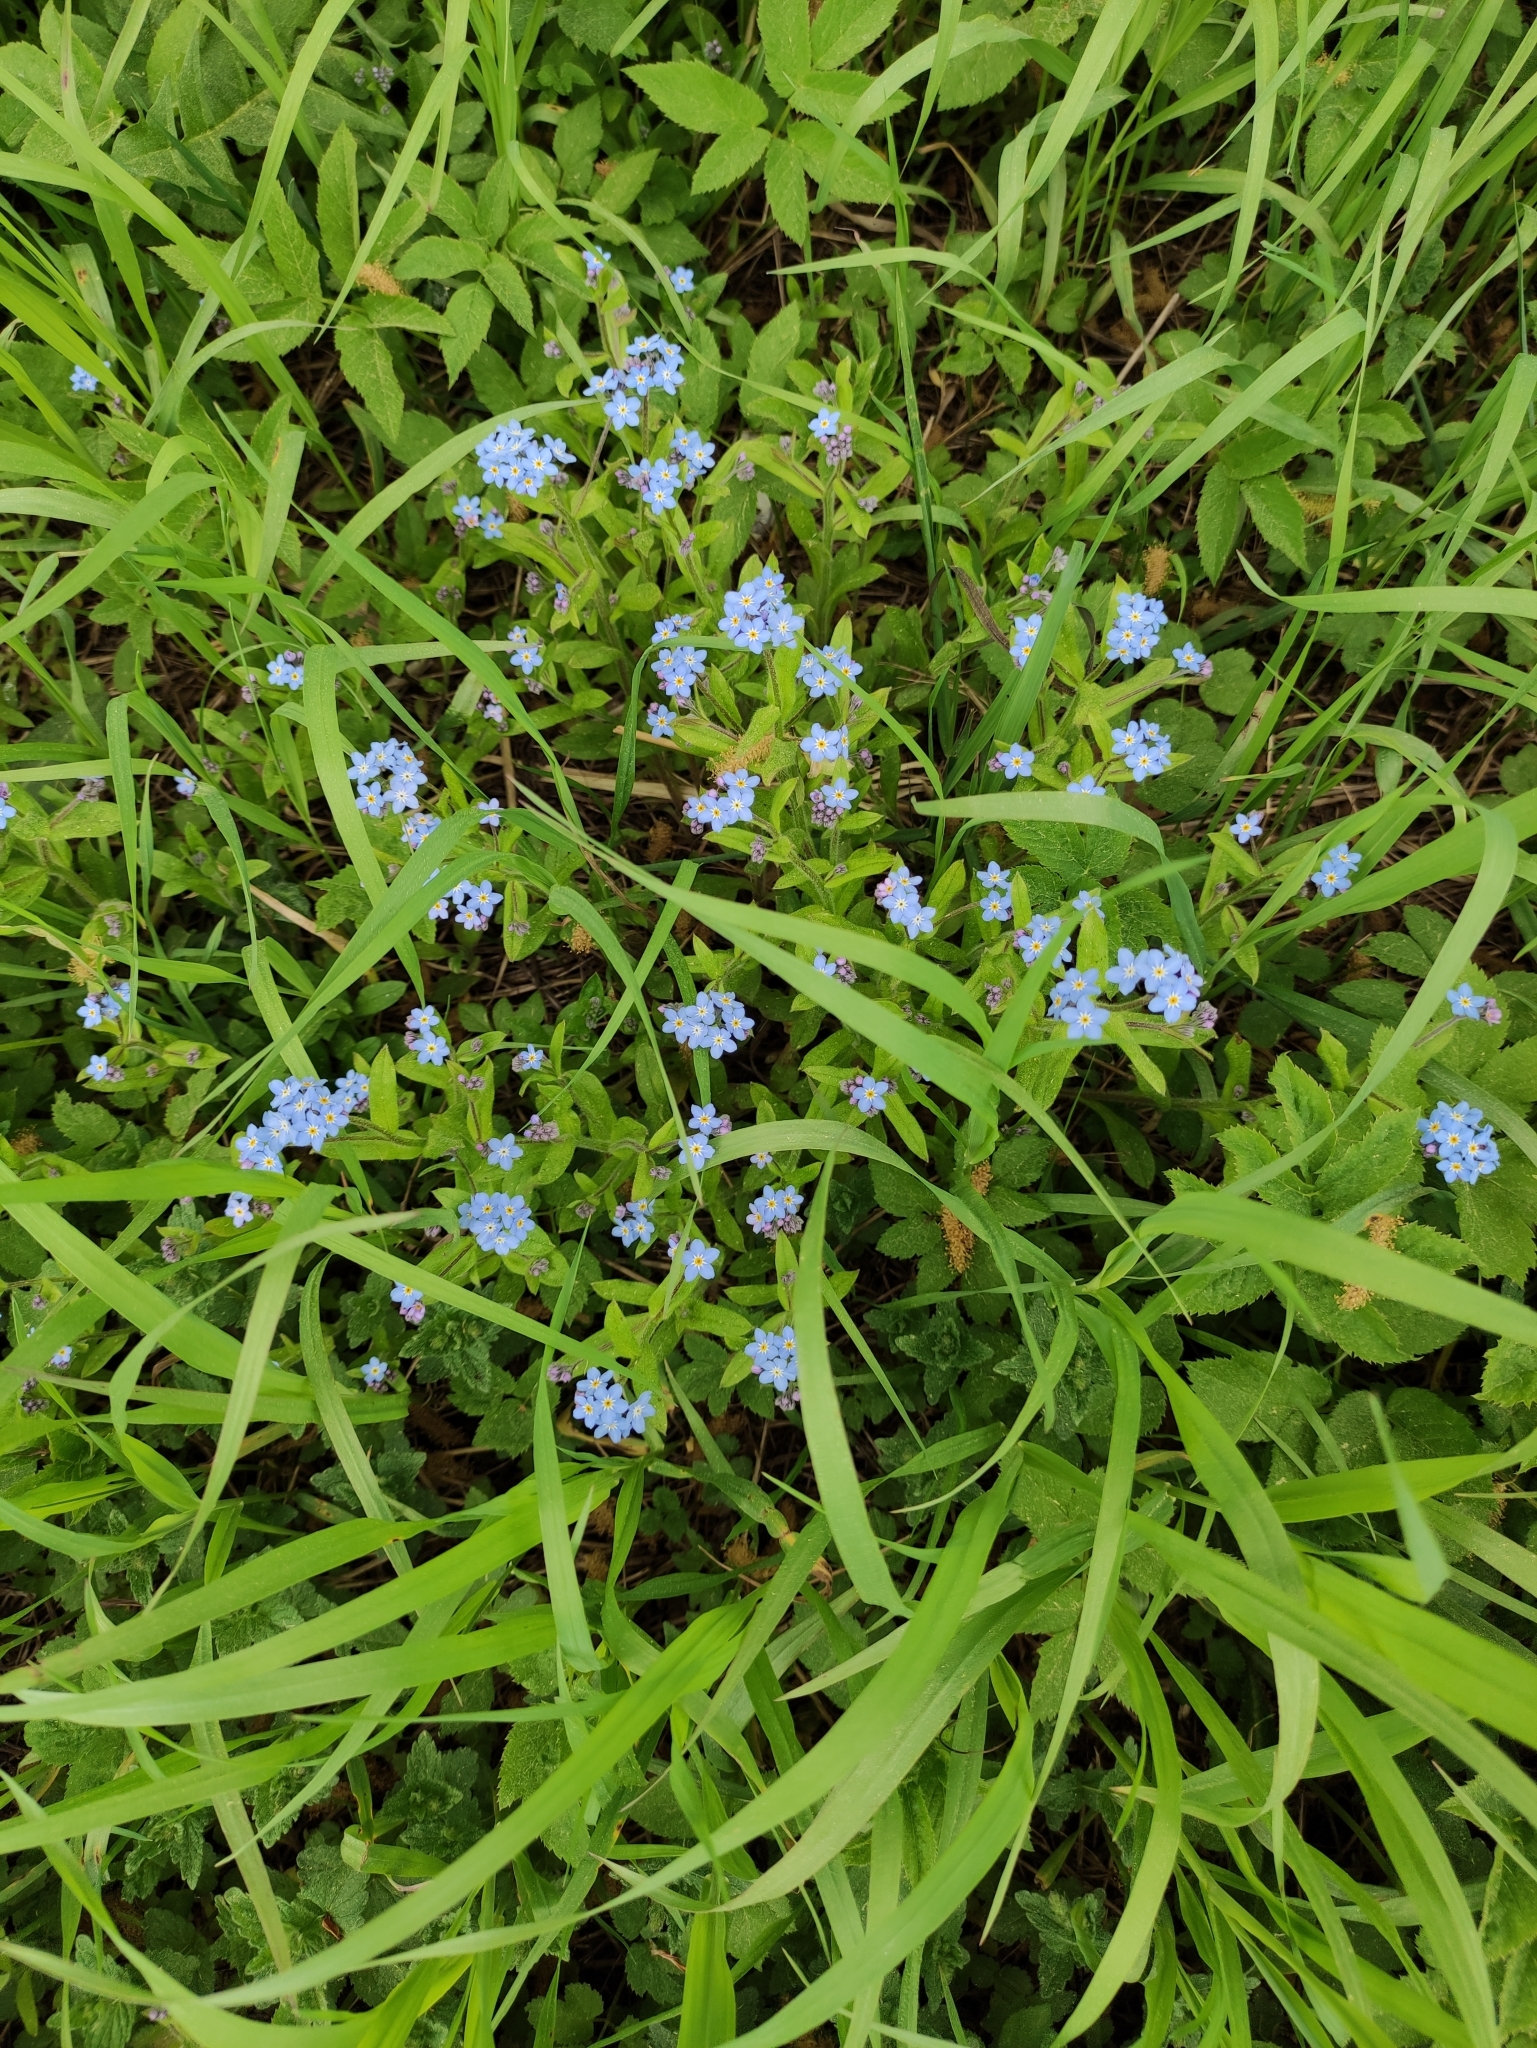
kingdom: Plantae
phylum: Tracheophyta
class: Magnoliopsida
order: Boraginales
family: Boraginaceae
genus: Myosotis
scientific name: Myosotis sylvatica
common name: Wood forget-me-not
